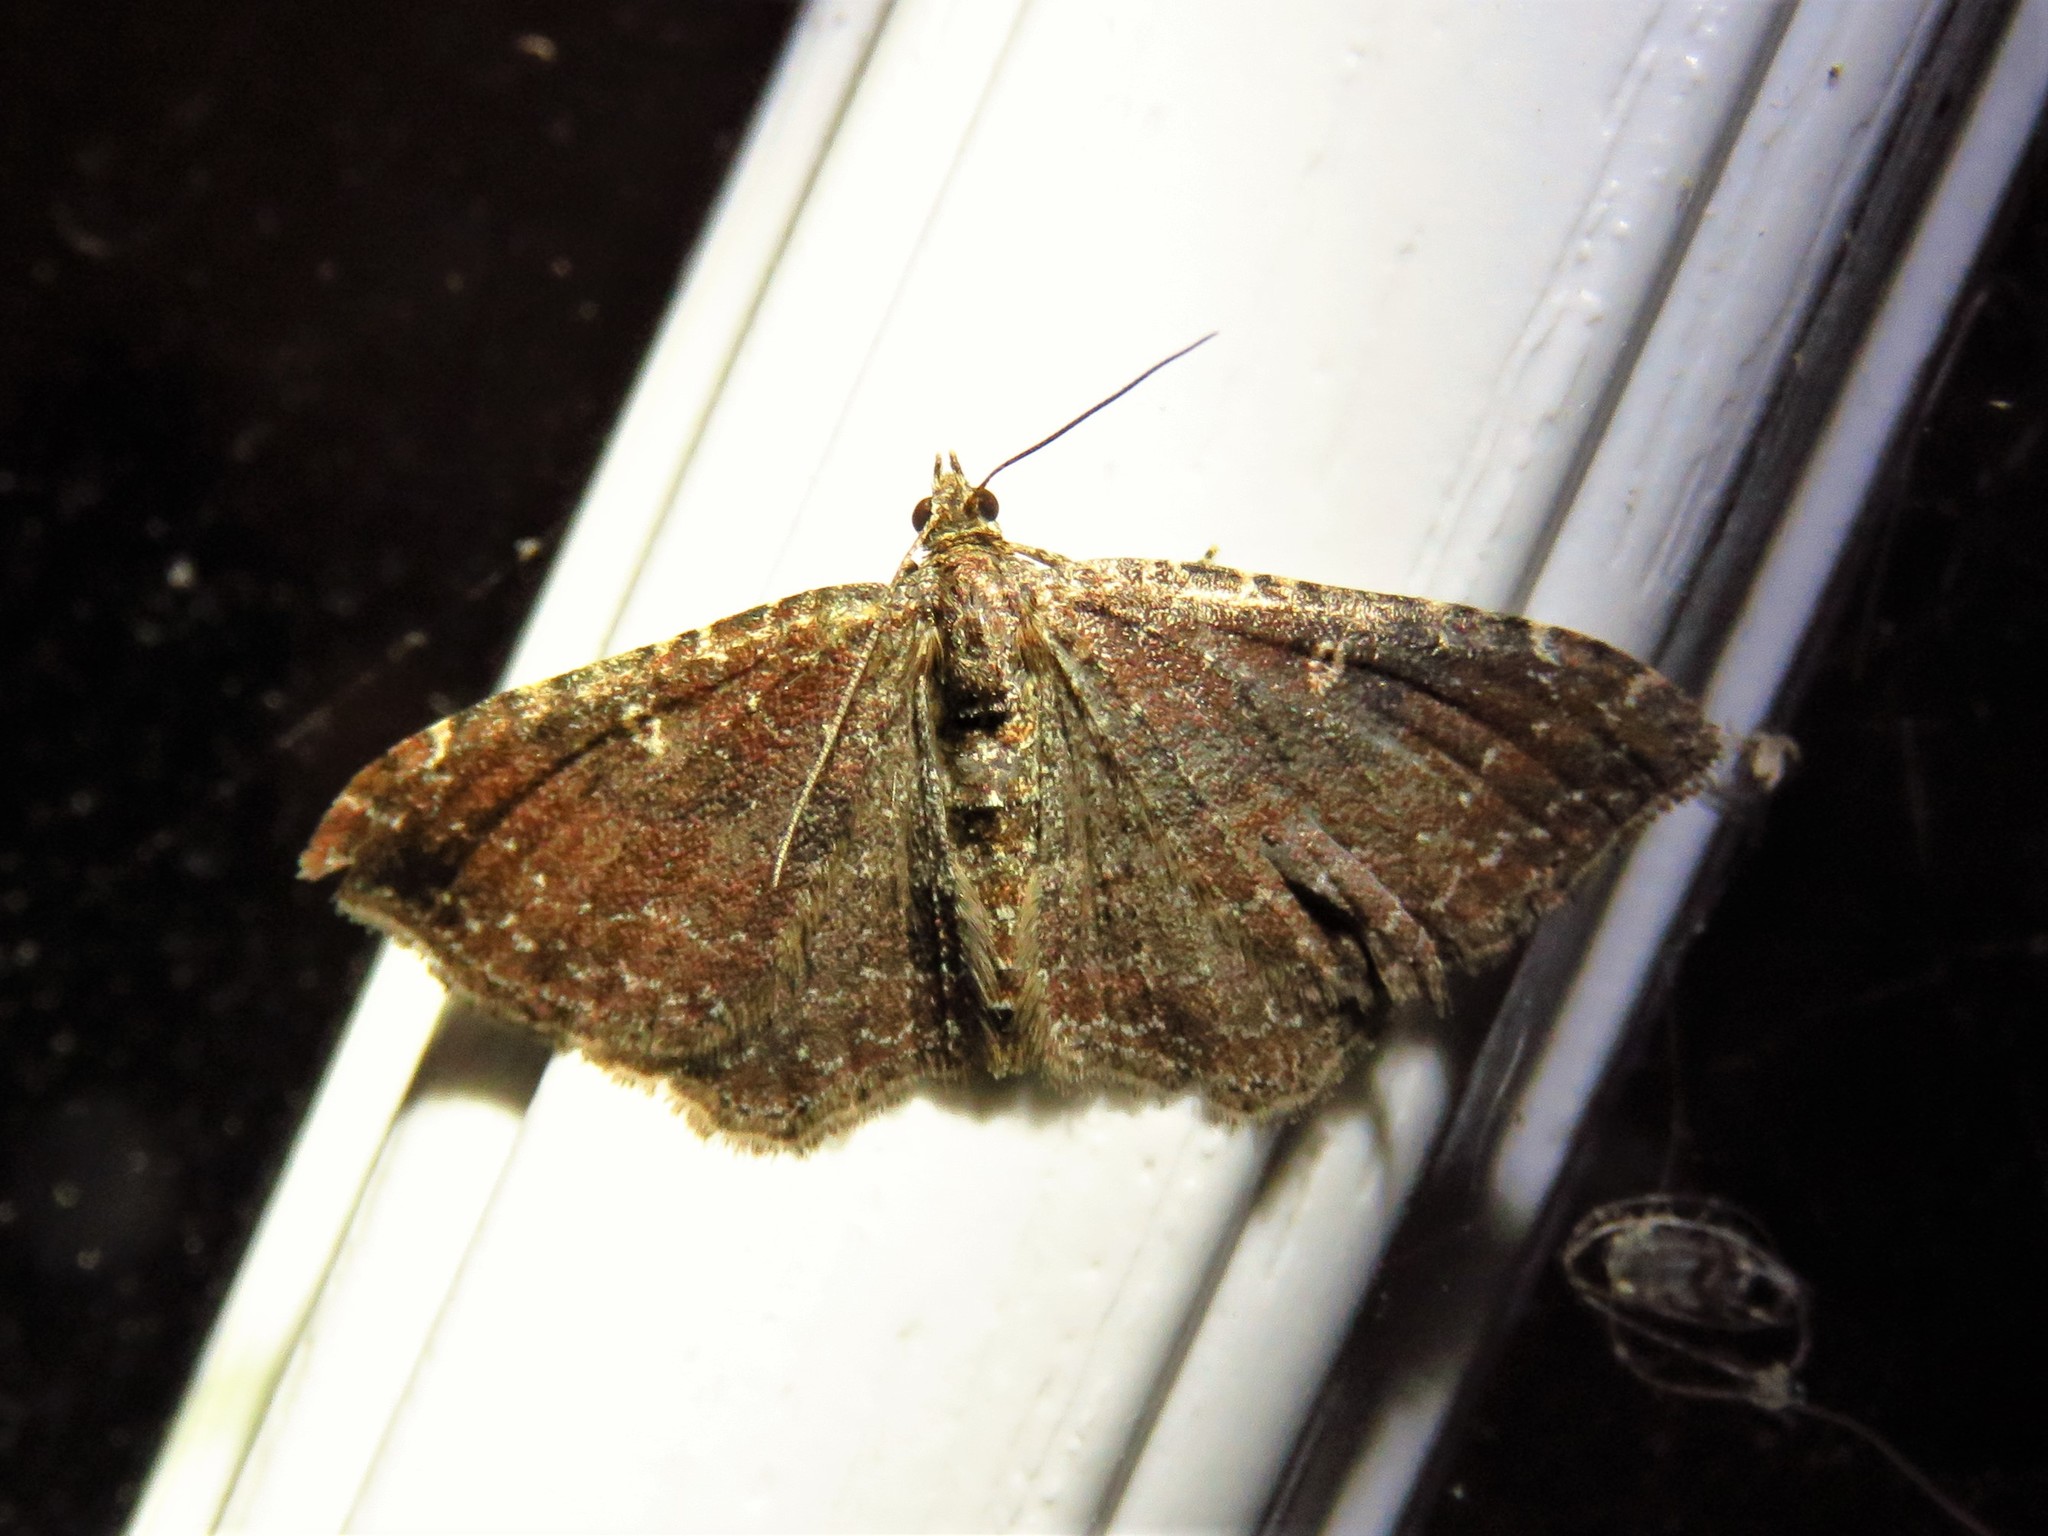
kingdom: Animalia
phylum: Arthropoda
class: Insecta
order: Lepidoptera
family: Geometridae
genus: Orthonama
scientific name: Orthonama obstipata
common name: The gem
